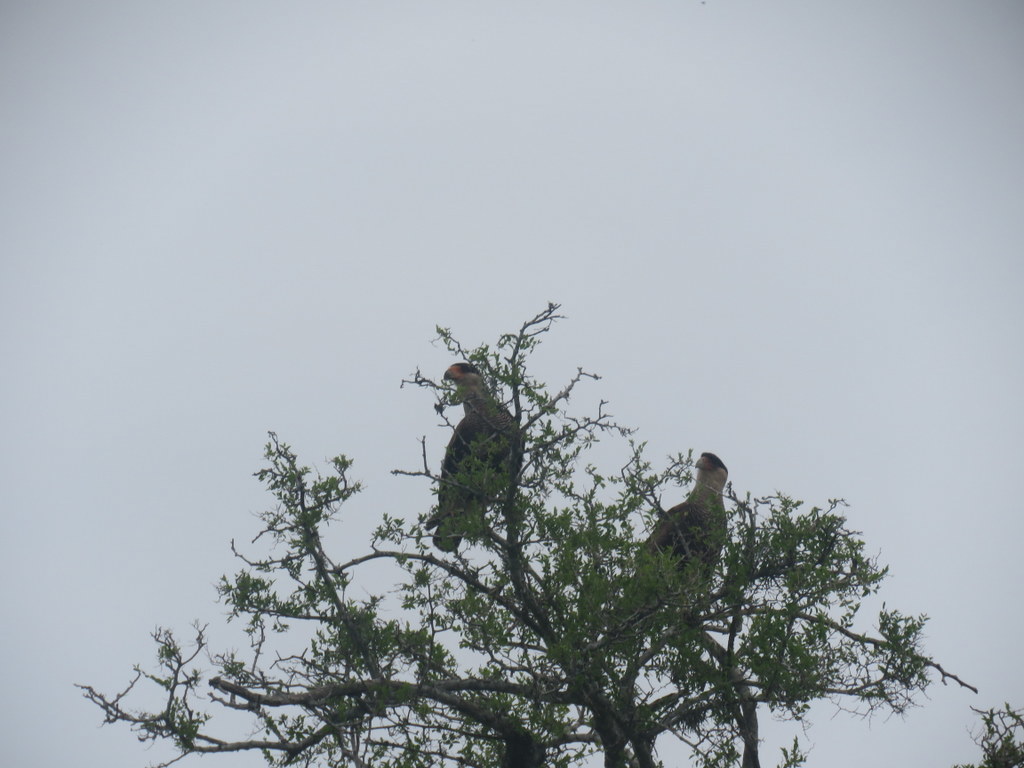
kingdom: Animalia
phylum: Chordata
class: Aves
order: Falconiformes
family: Falconidae
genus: Caracara
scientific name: Caracara plancus
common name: Southern caracara
